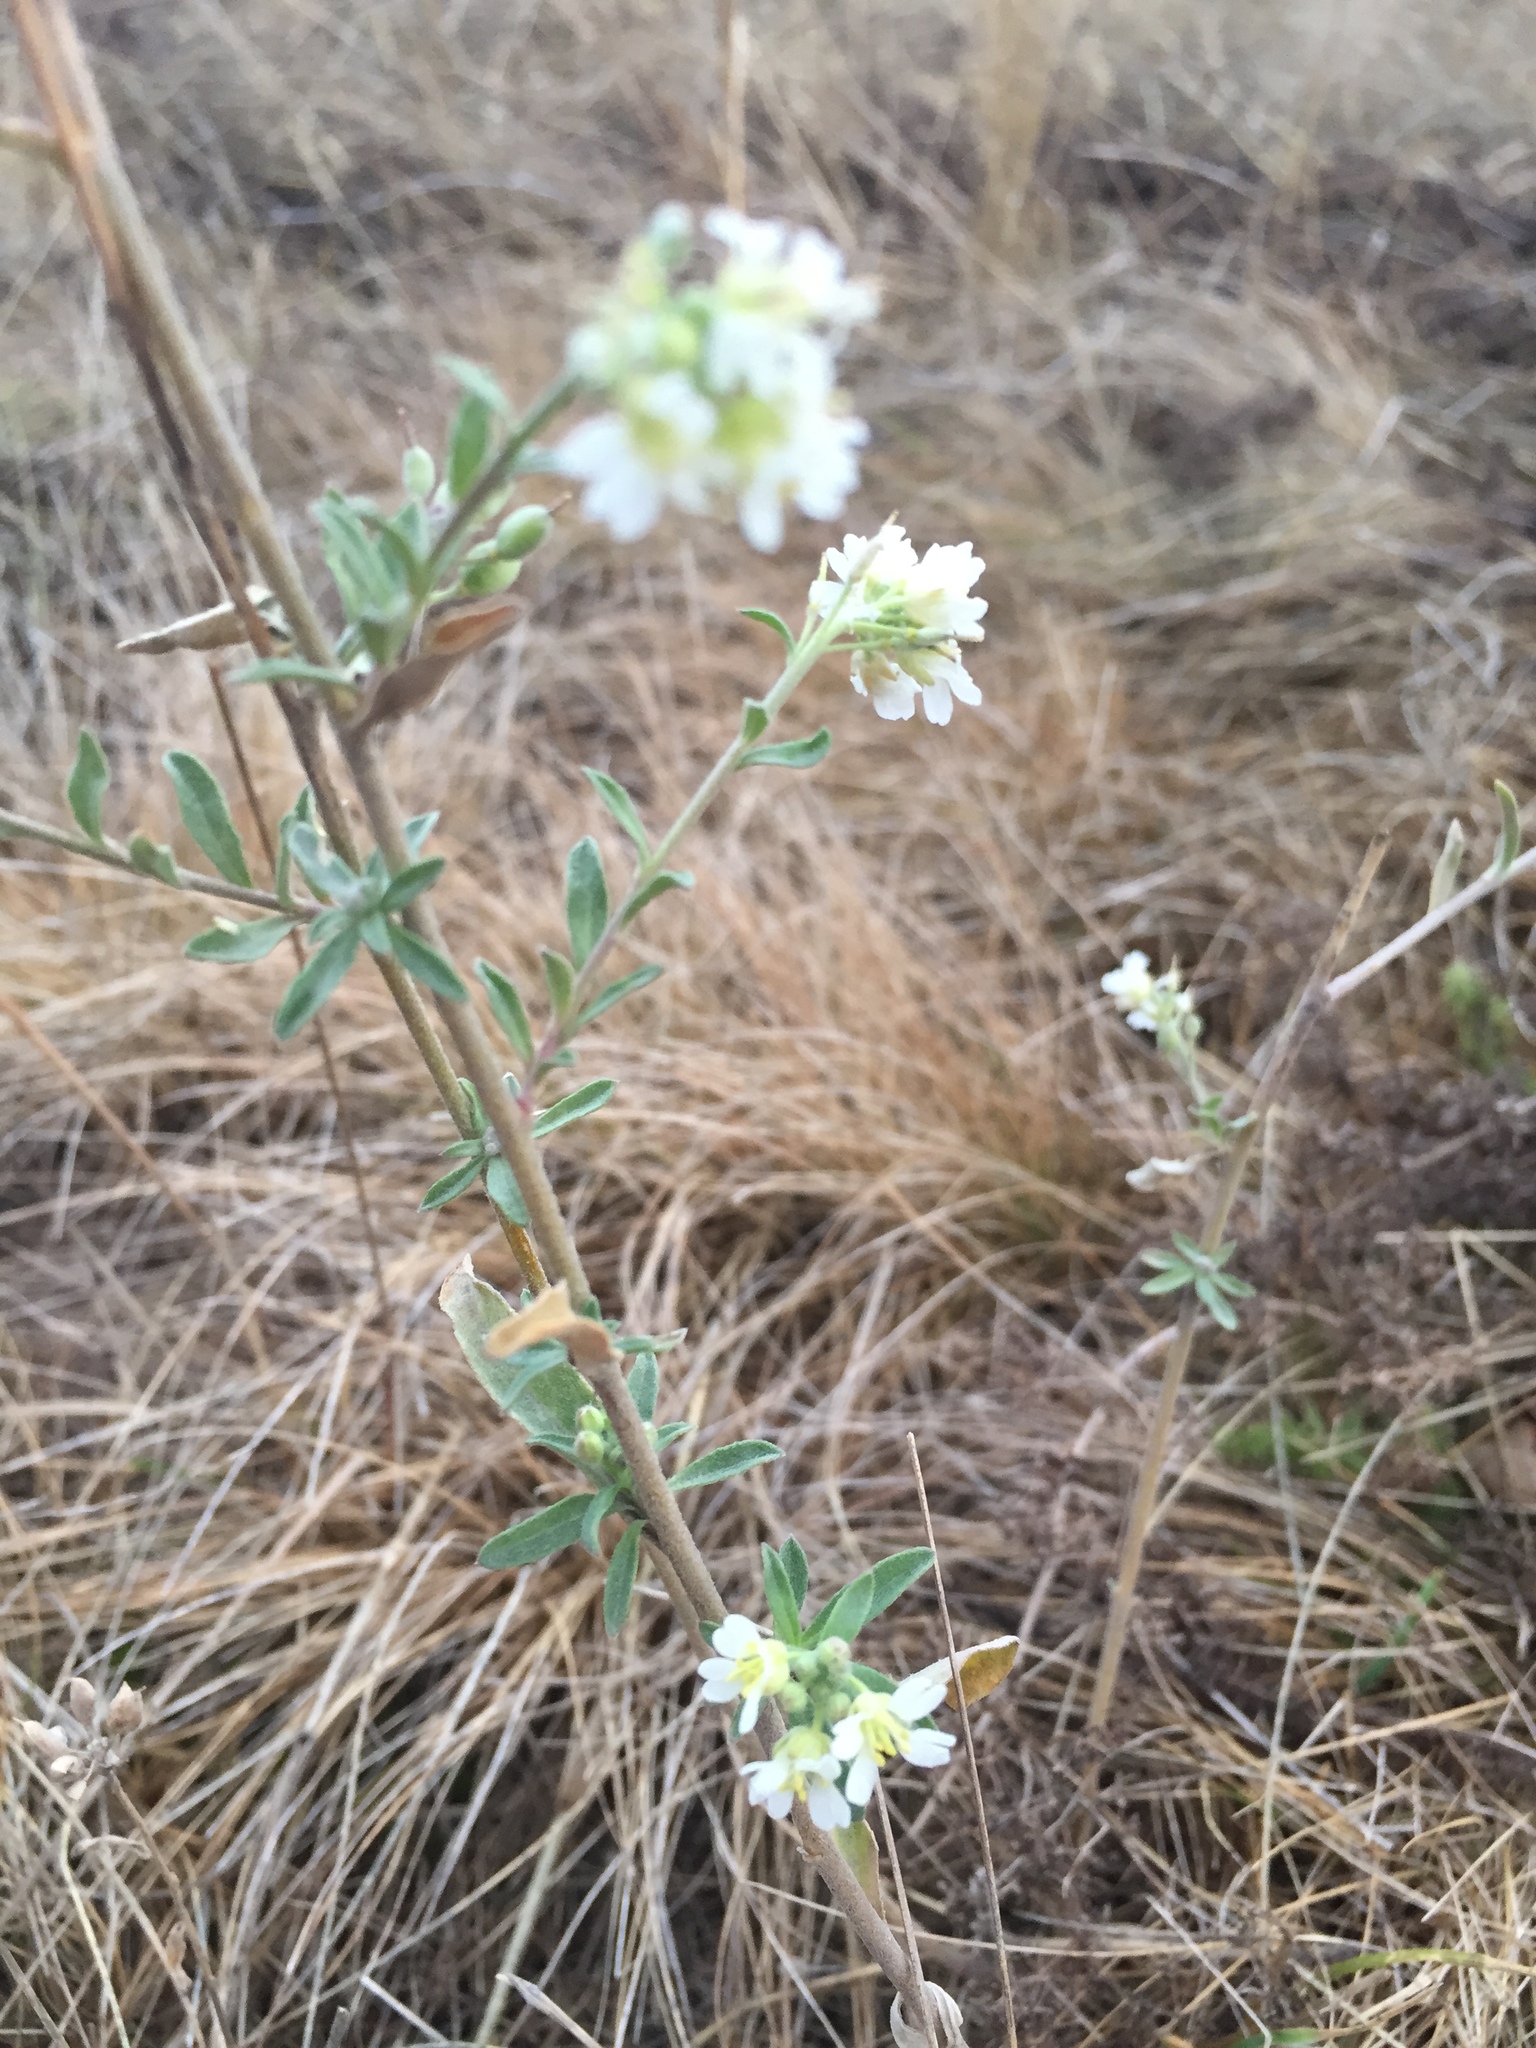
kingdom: Plantae
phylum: Tracheophyta
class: Magnoliopsida
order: Brassicales
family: Brassicaceae
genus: Berteroa
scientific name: Berteroa incana
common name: Hoary alison
